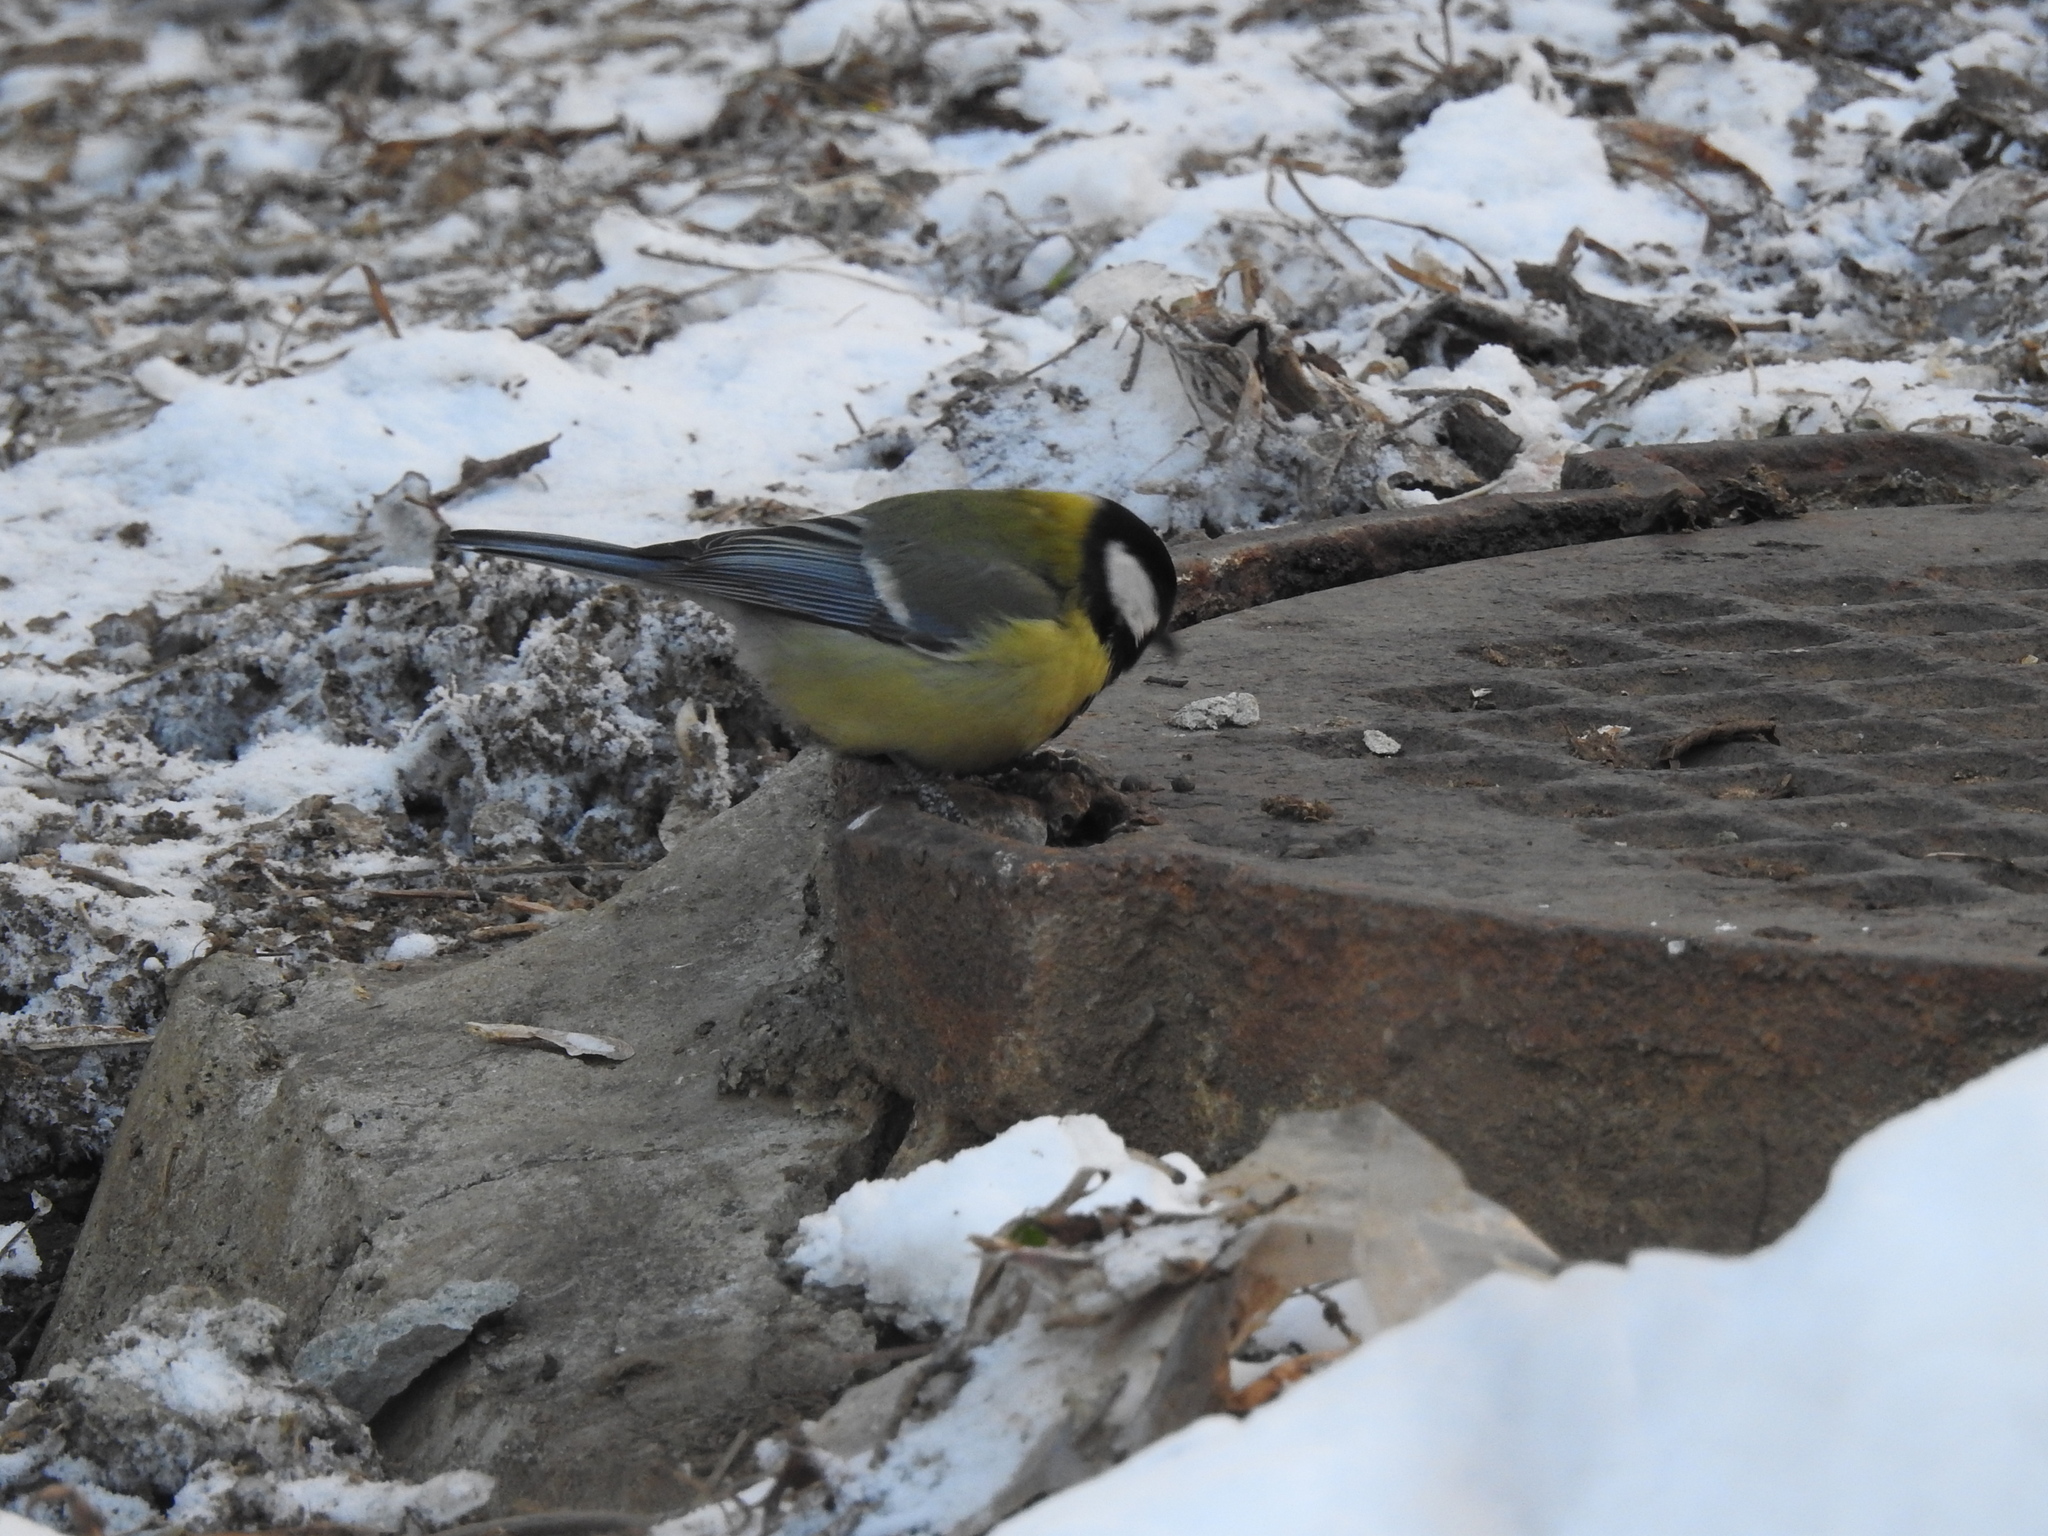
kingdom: Animalia
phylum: Chordata
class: Aves
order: Passeriformes
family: Paridae
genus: Parus
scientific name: Parus major
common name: Great tit
